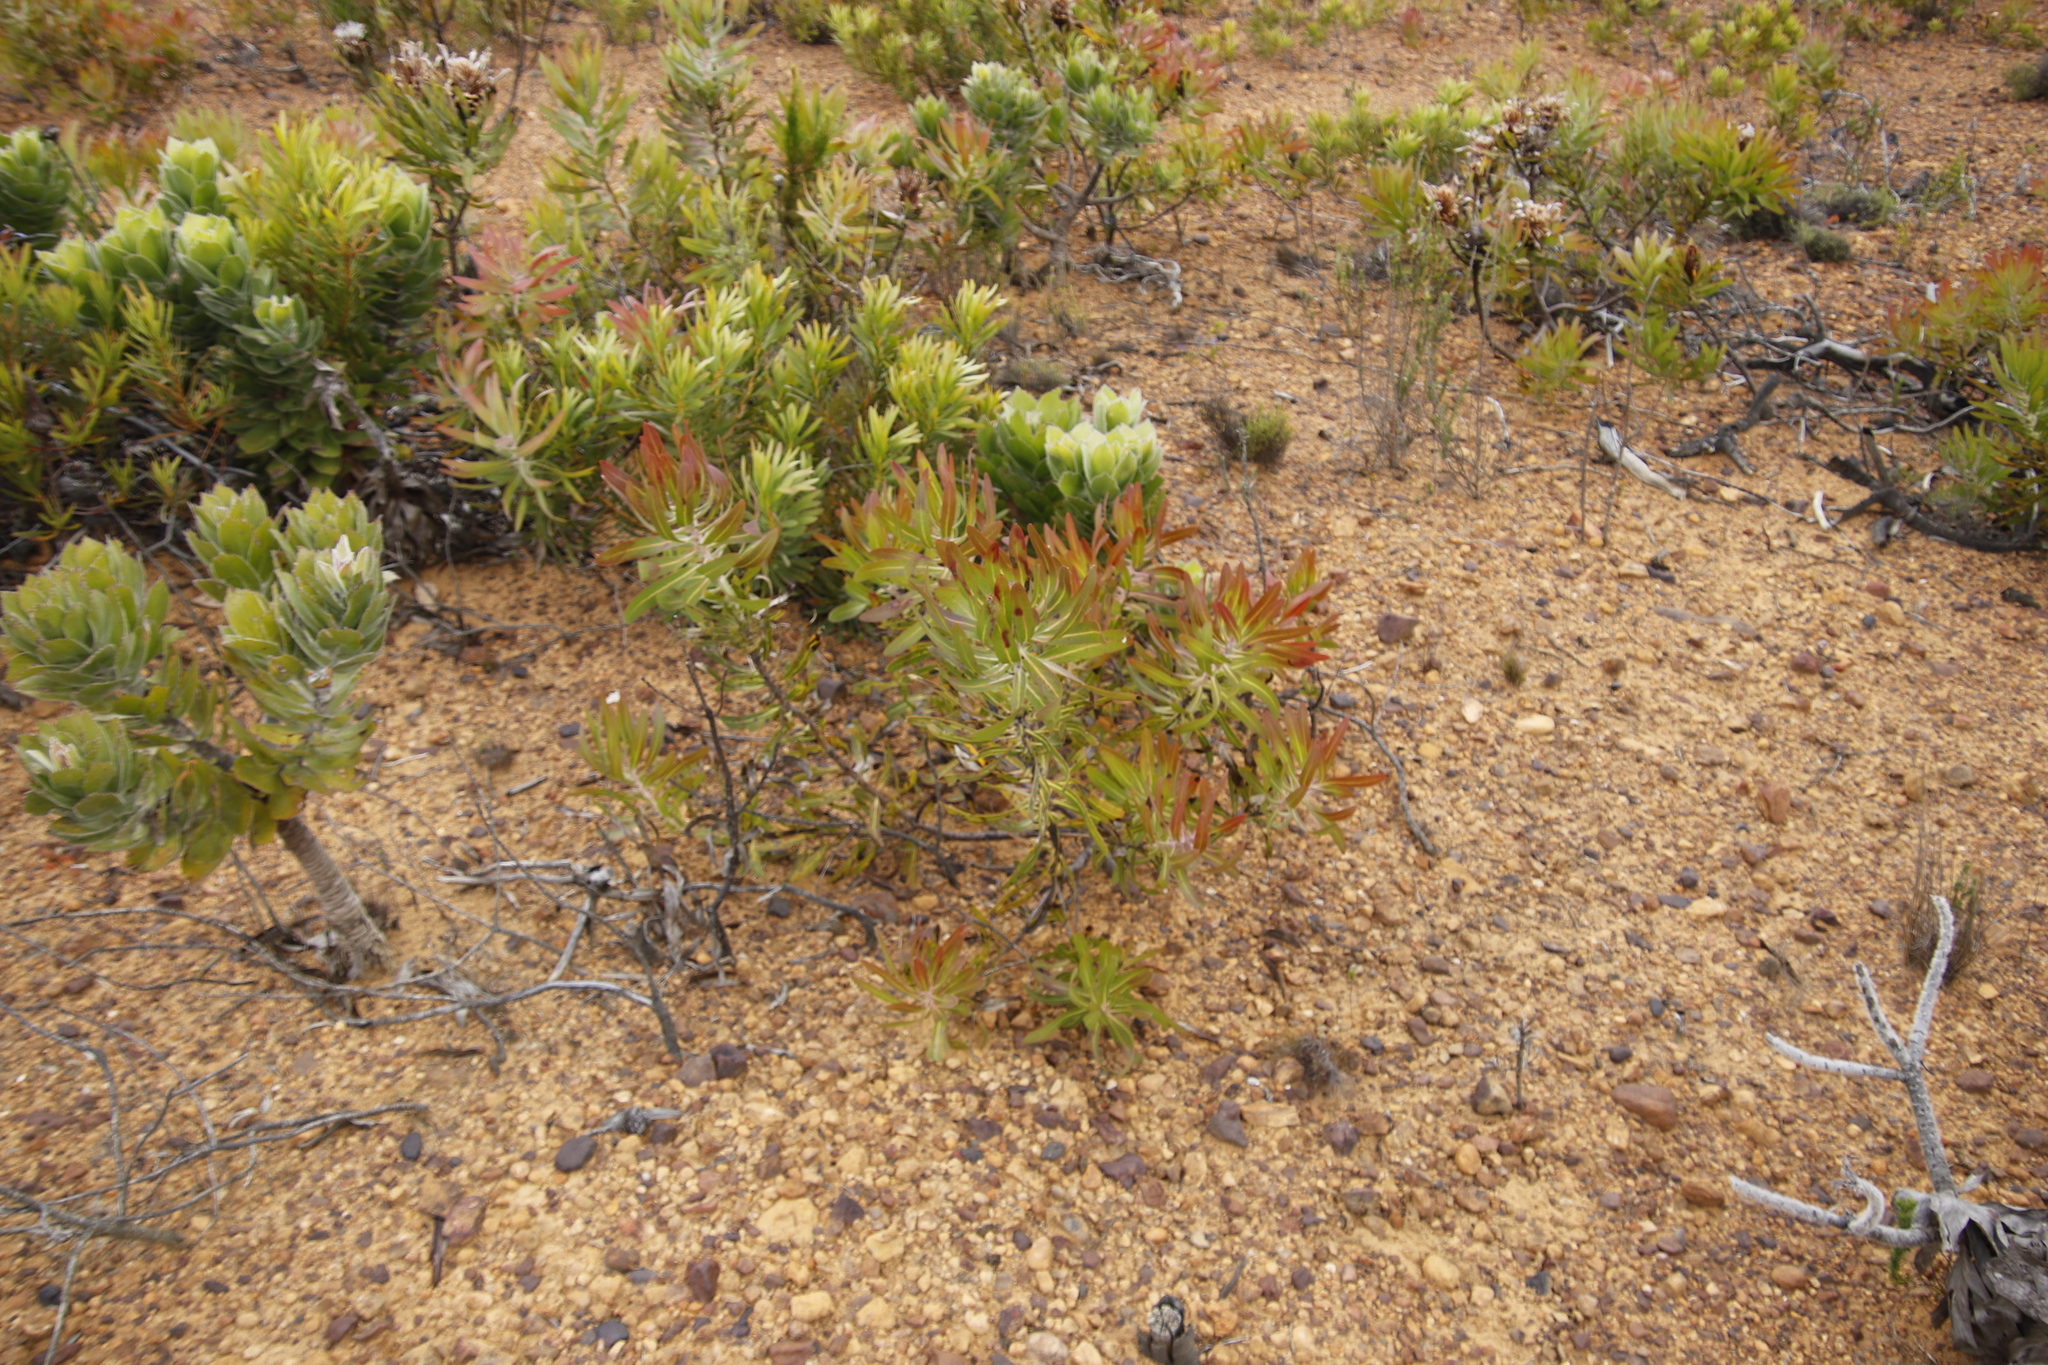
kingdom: Plantae
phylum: Tracheophyta
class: Magnoliopsida
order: Proteales
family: Proteaceae
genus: Protea
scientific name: Protea
